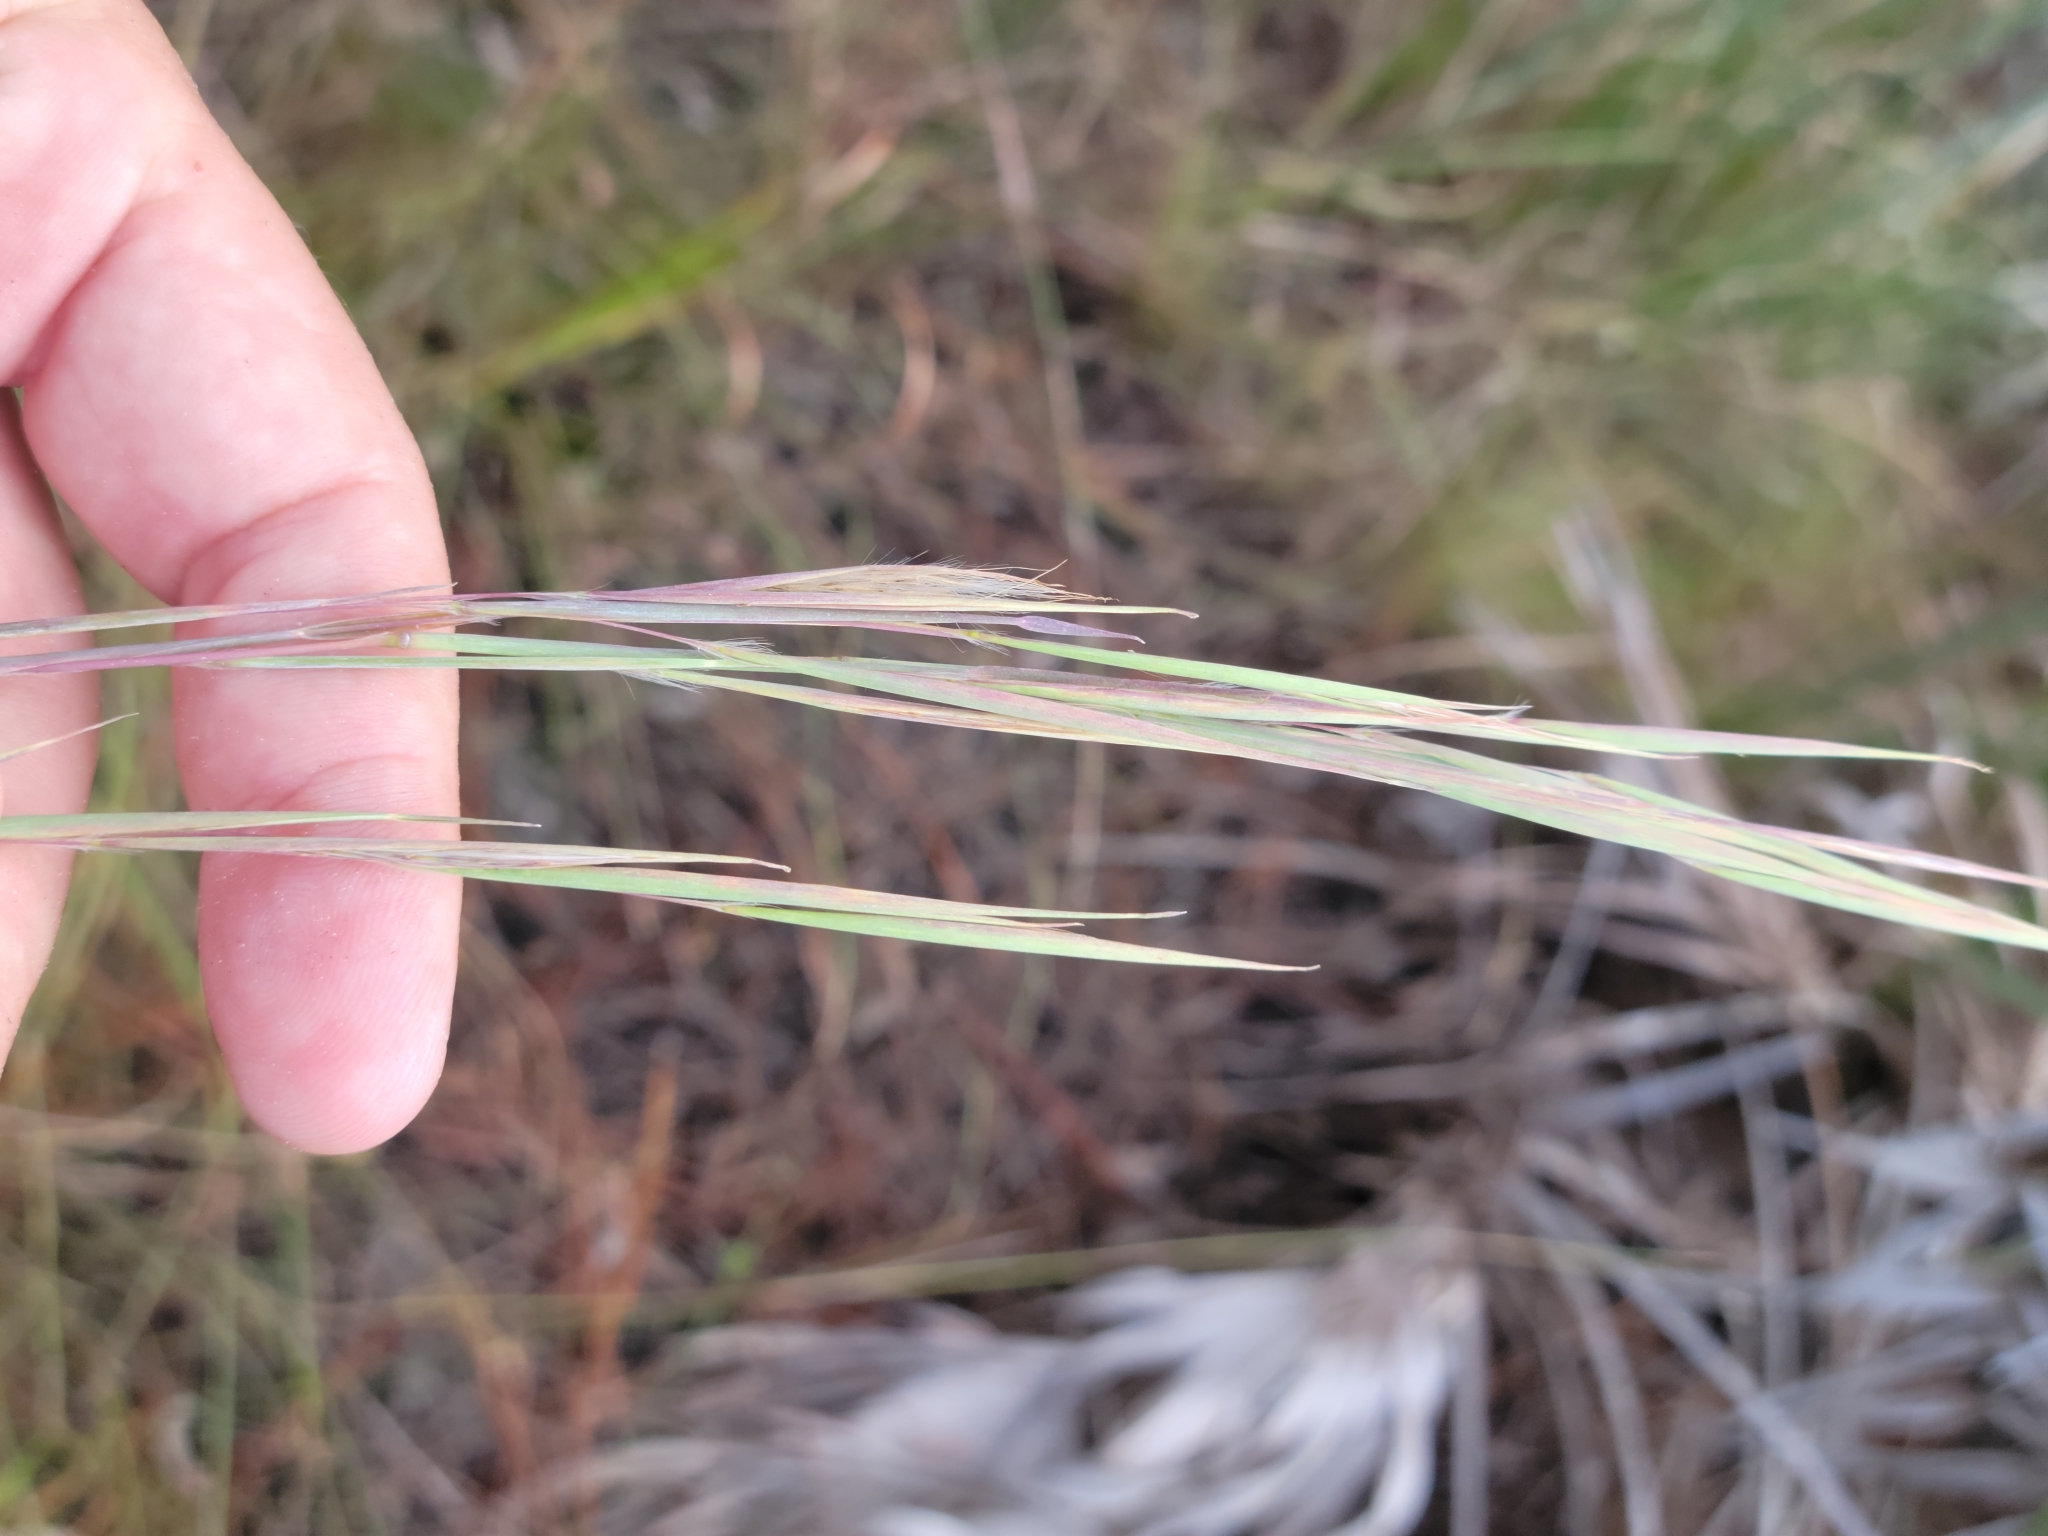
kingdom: Plantae
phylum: Tracheophyta
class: Liliopsida
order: Poales
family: Poaceae
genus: Andropogon
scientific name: Andropogon dealbatus
